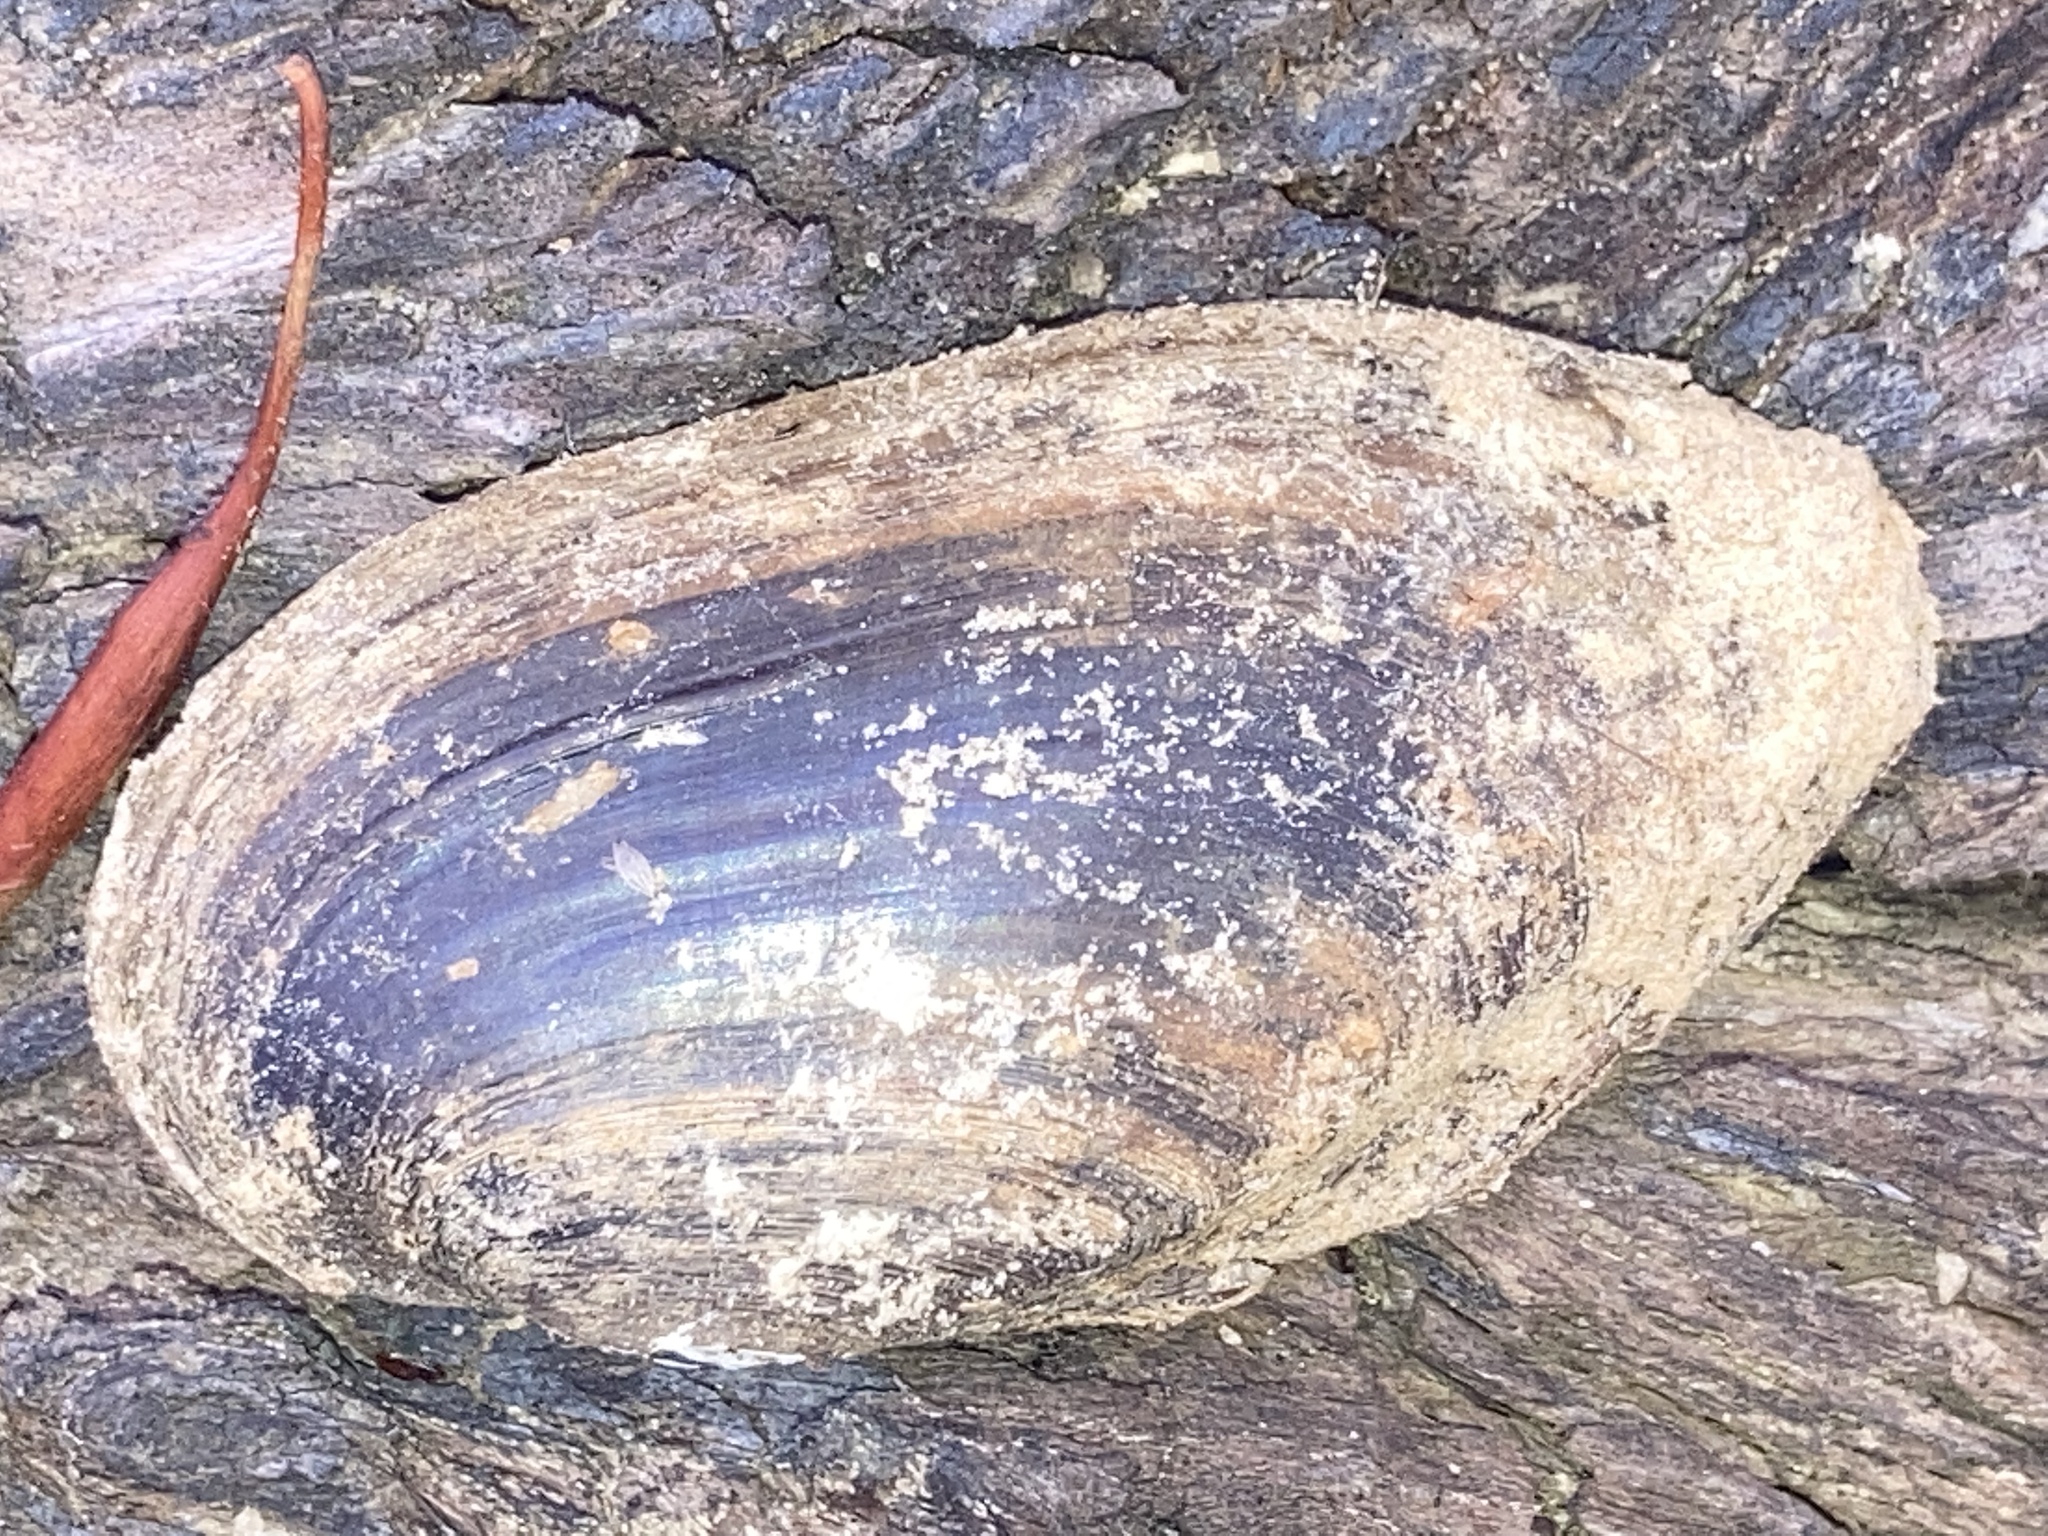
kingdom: Animalia
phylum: Mollusca
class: Bivalvia
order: Unionida
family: Unionidae
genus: Sagittunio
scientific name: Sagittunio subrostratus
